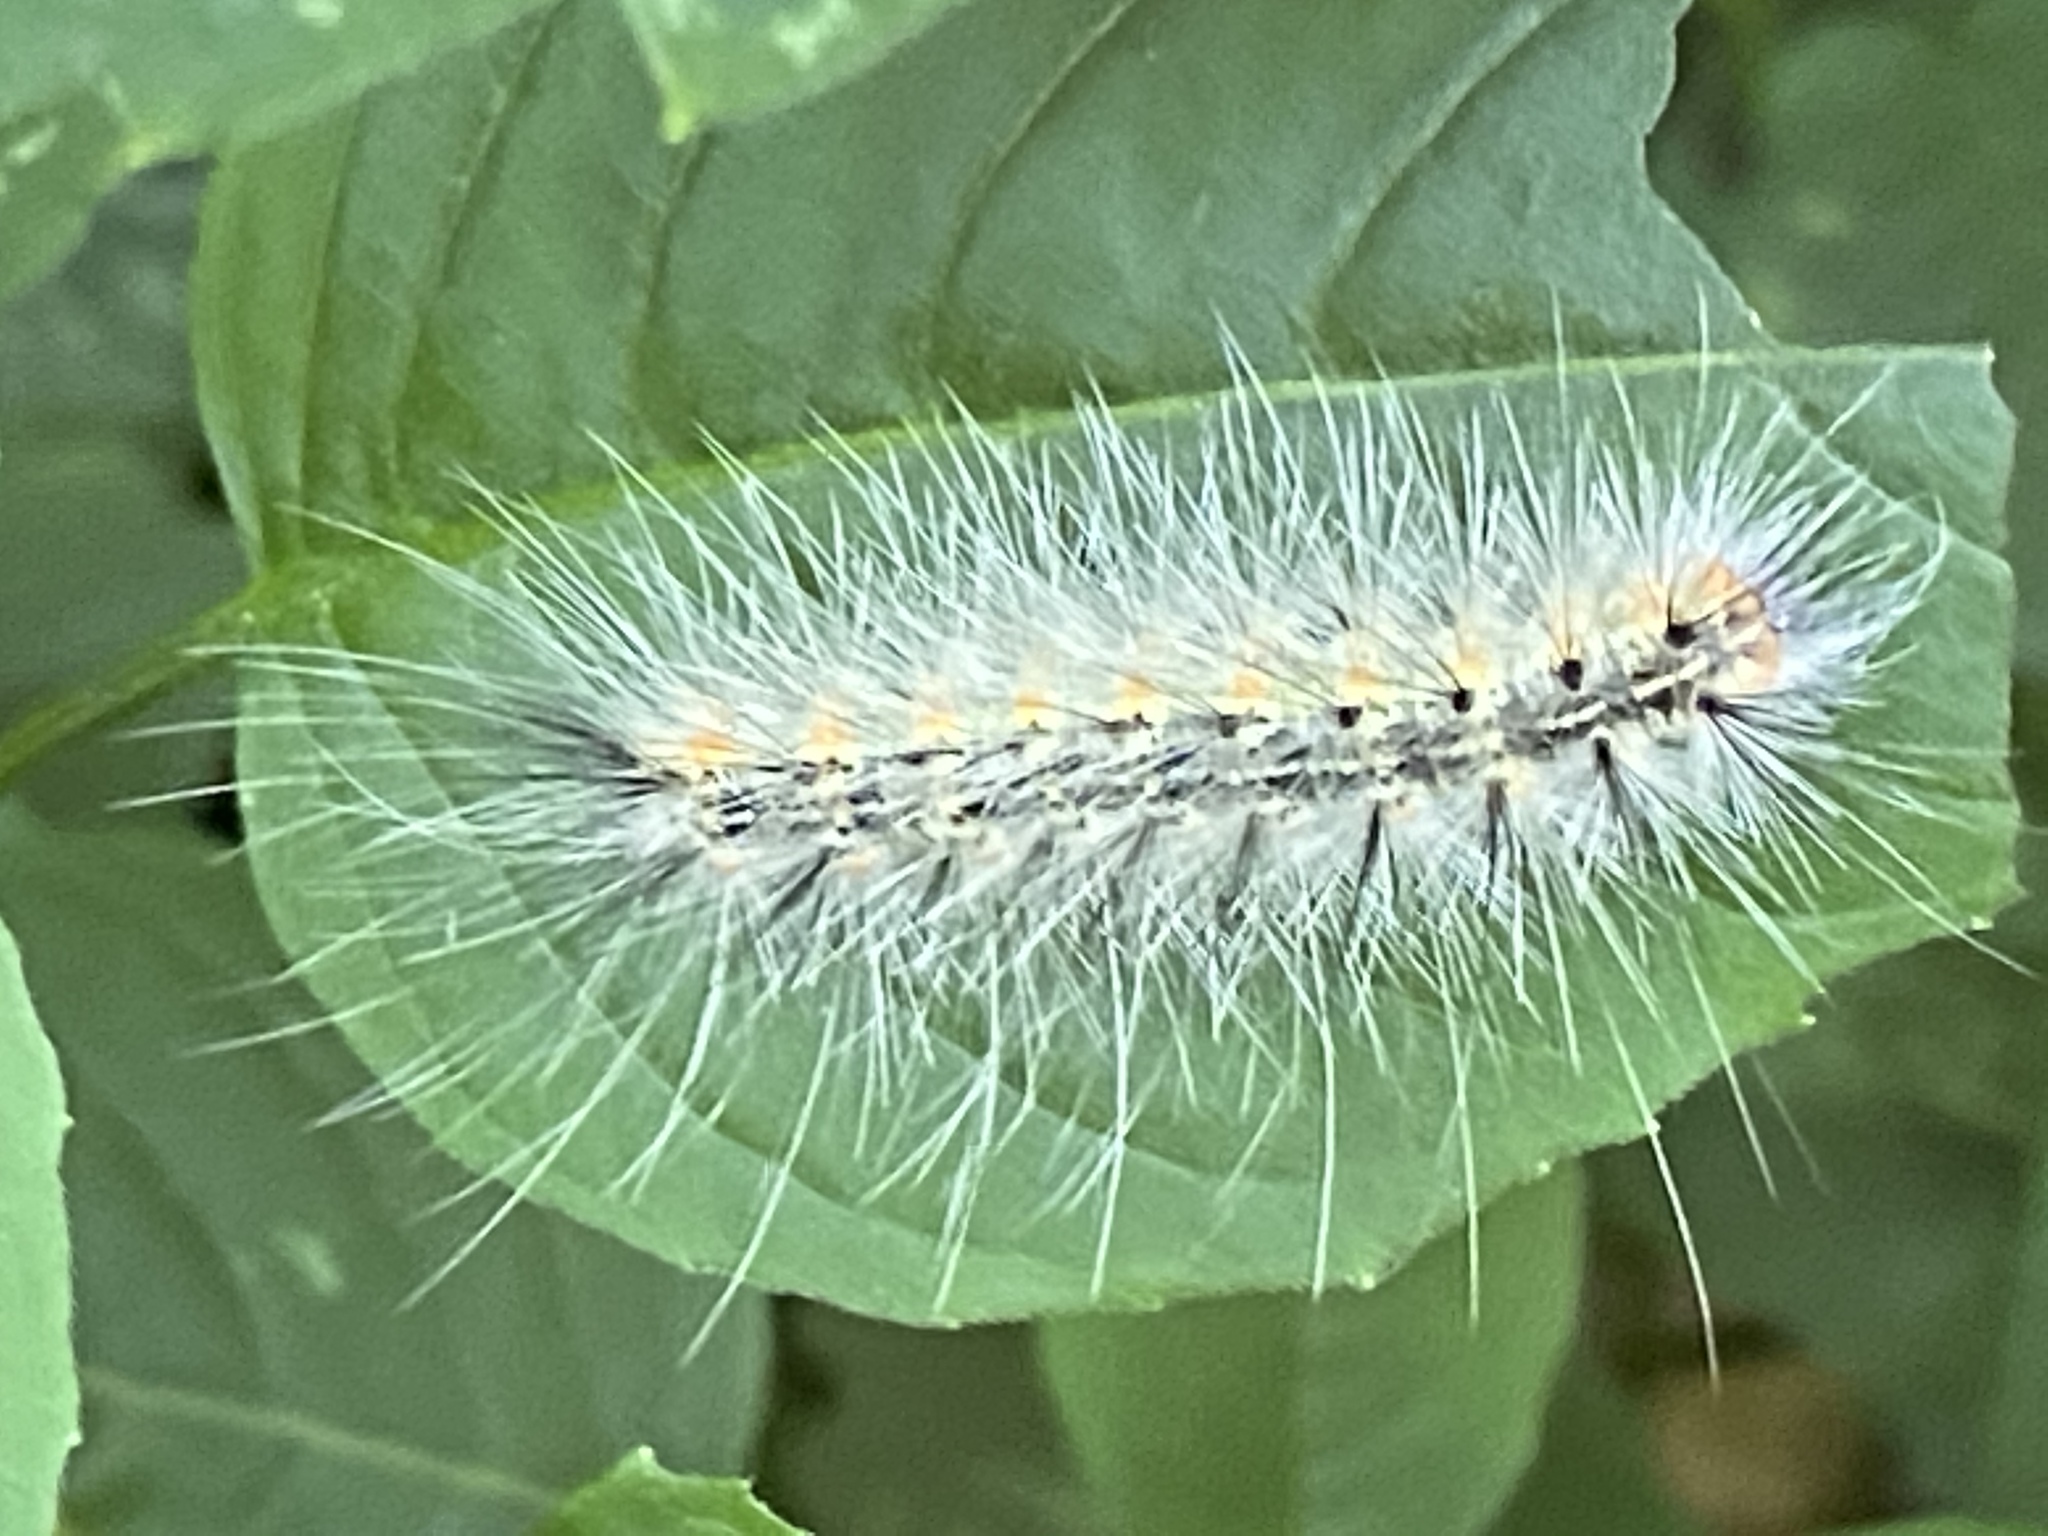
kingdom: Animalia
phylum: Arthropoda
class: Insecta
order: Lepidoptera
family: Erebidae
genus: Hyphantria
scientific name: Hyphantria cunea
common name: American white moth
